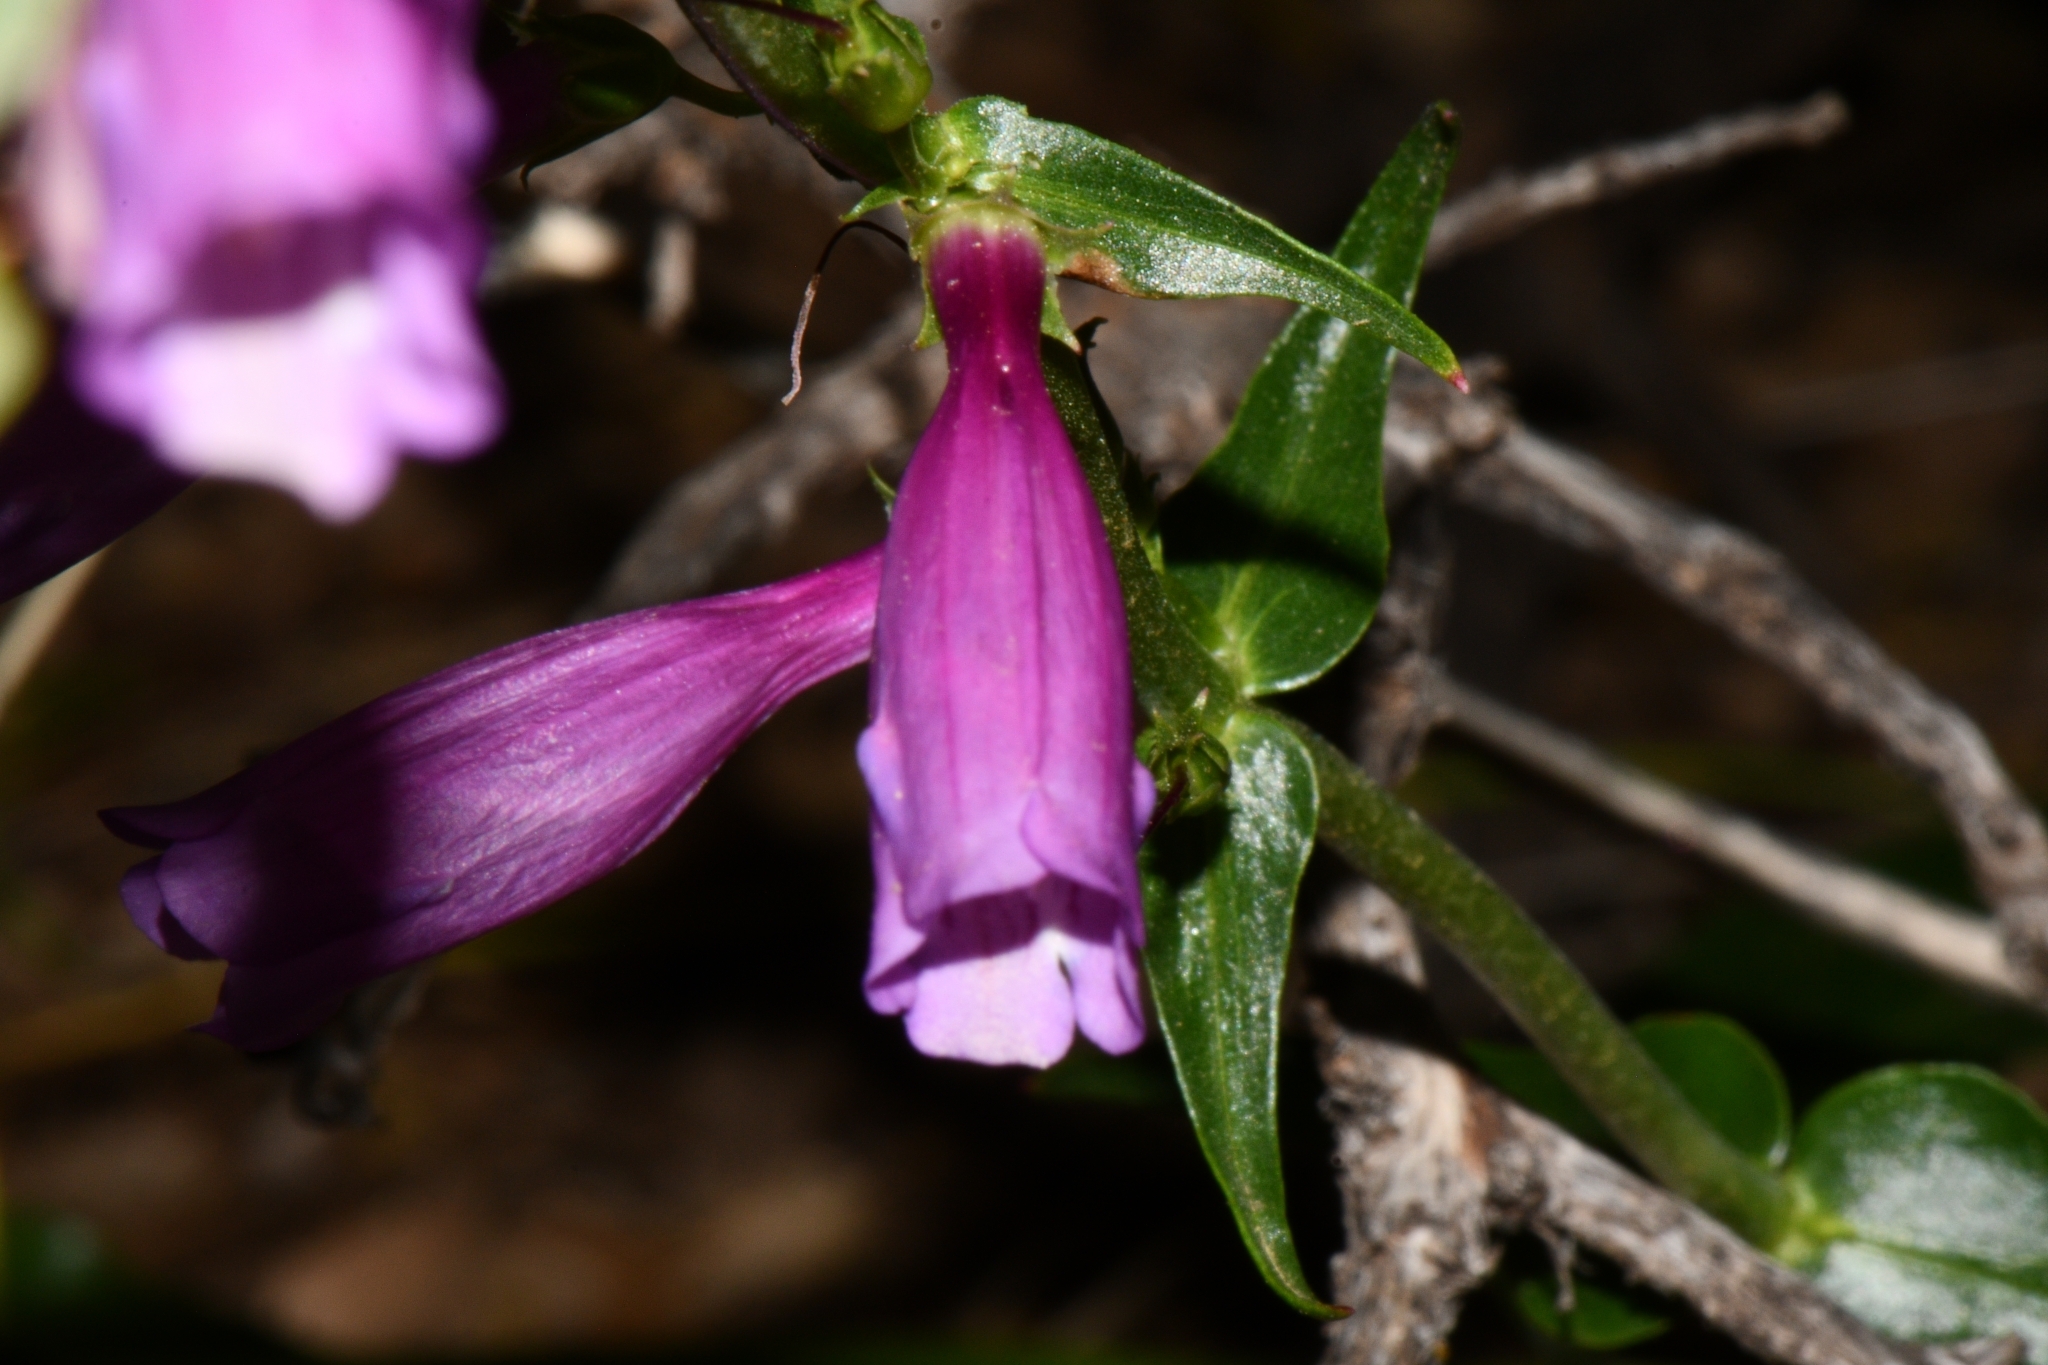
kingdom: Plantae
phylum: Tracheophyta
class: Magnoliopsida
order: Lamiales
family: Plantaginaceae
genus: Penstemon
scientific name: Penstemon jonesii
